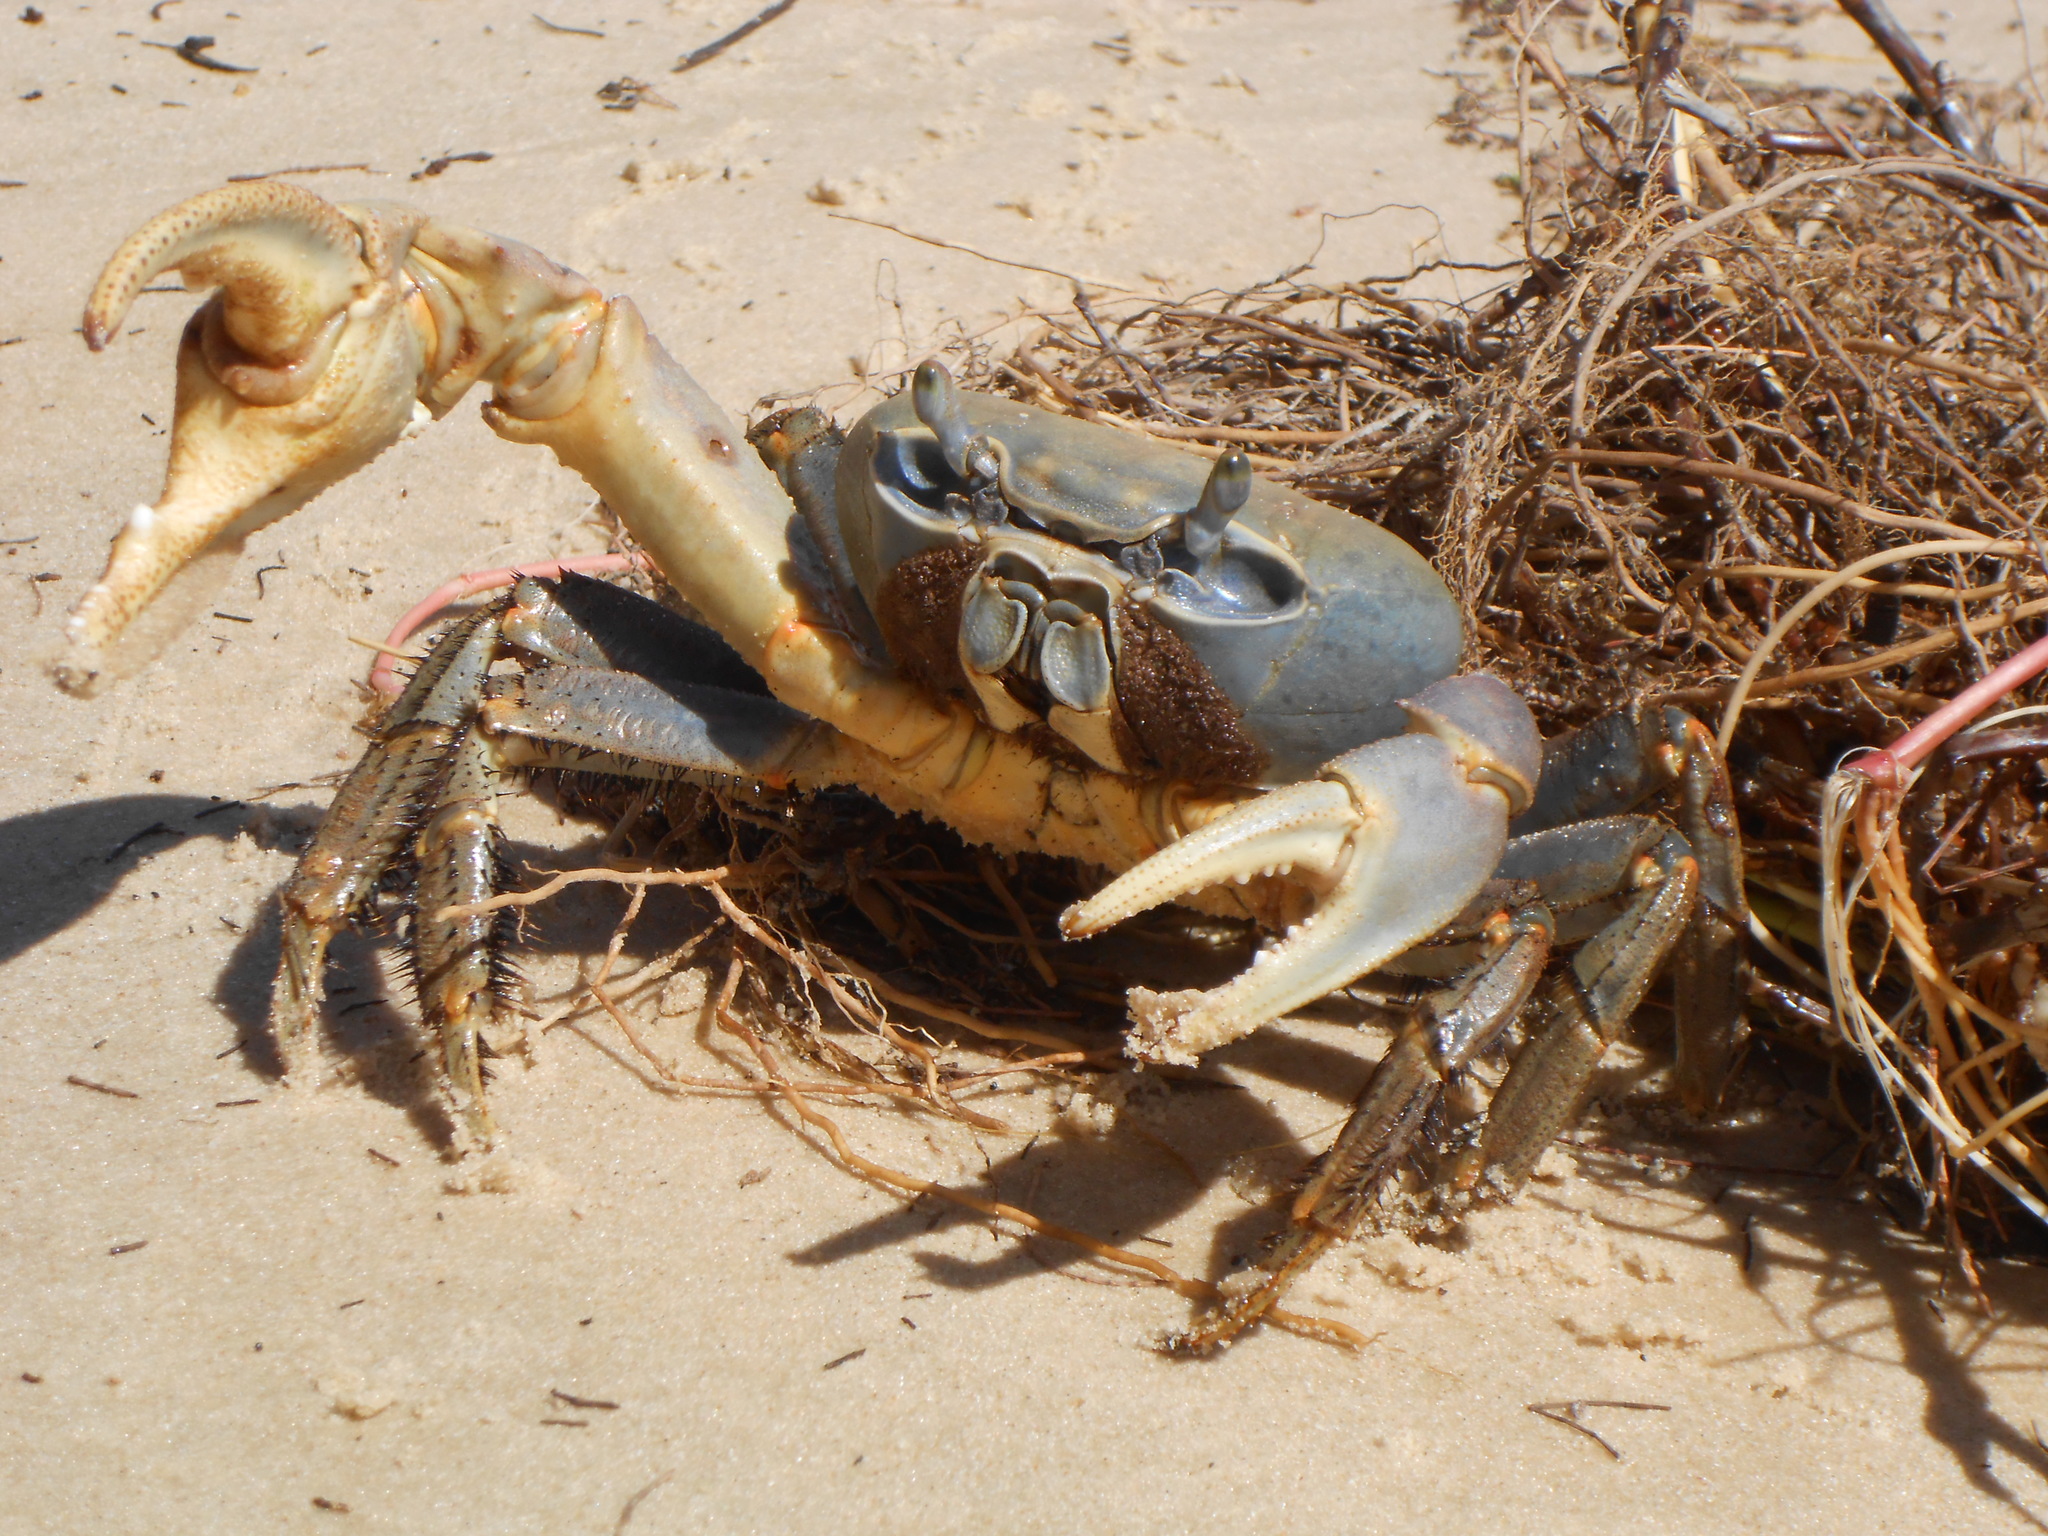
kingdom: Animalia
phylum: Arthropoda
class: Malacostraca
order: Decapoda
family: Gecarcinidae
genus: Cardisoma
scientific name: Cardisoma armatum
